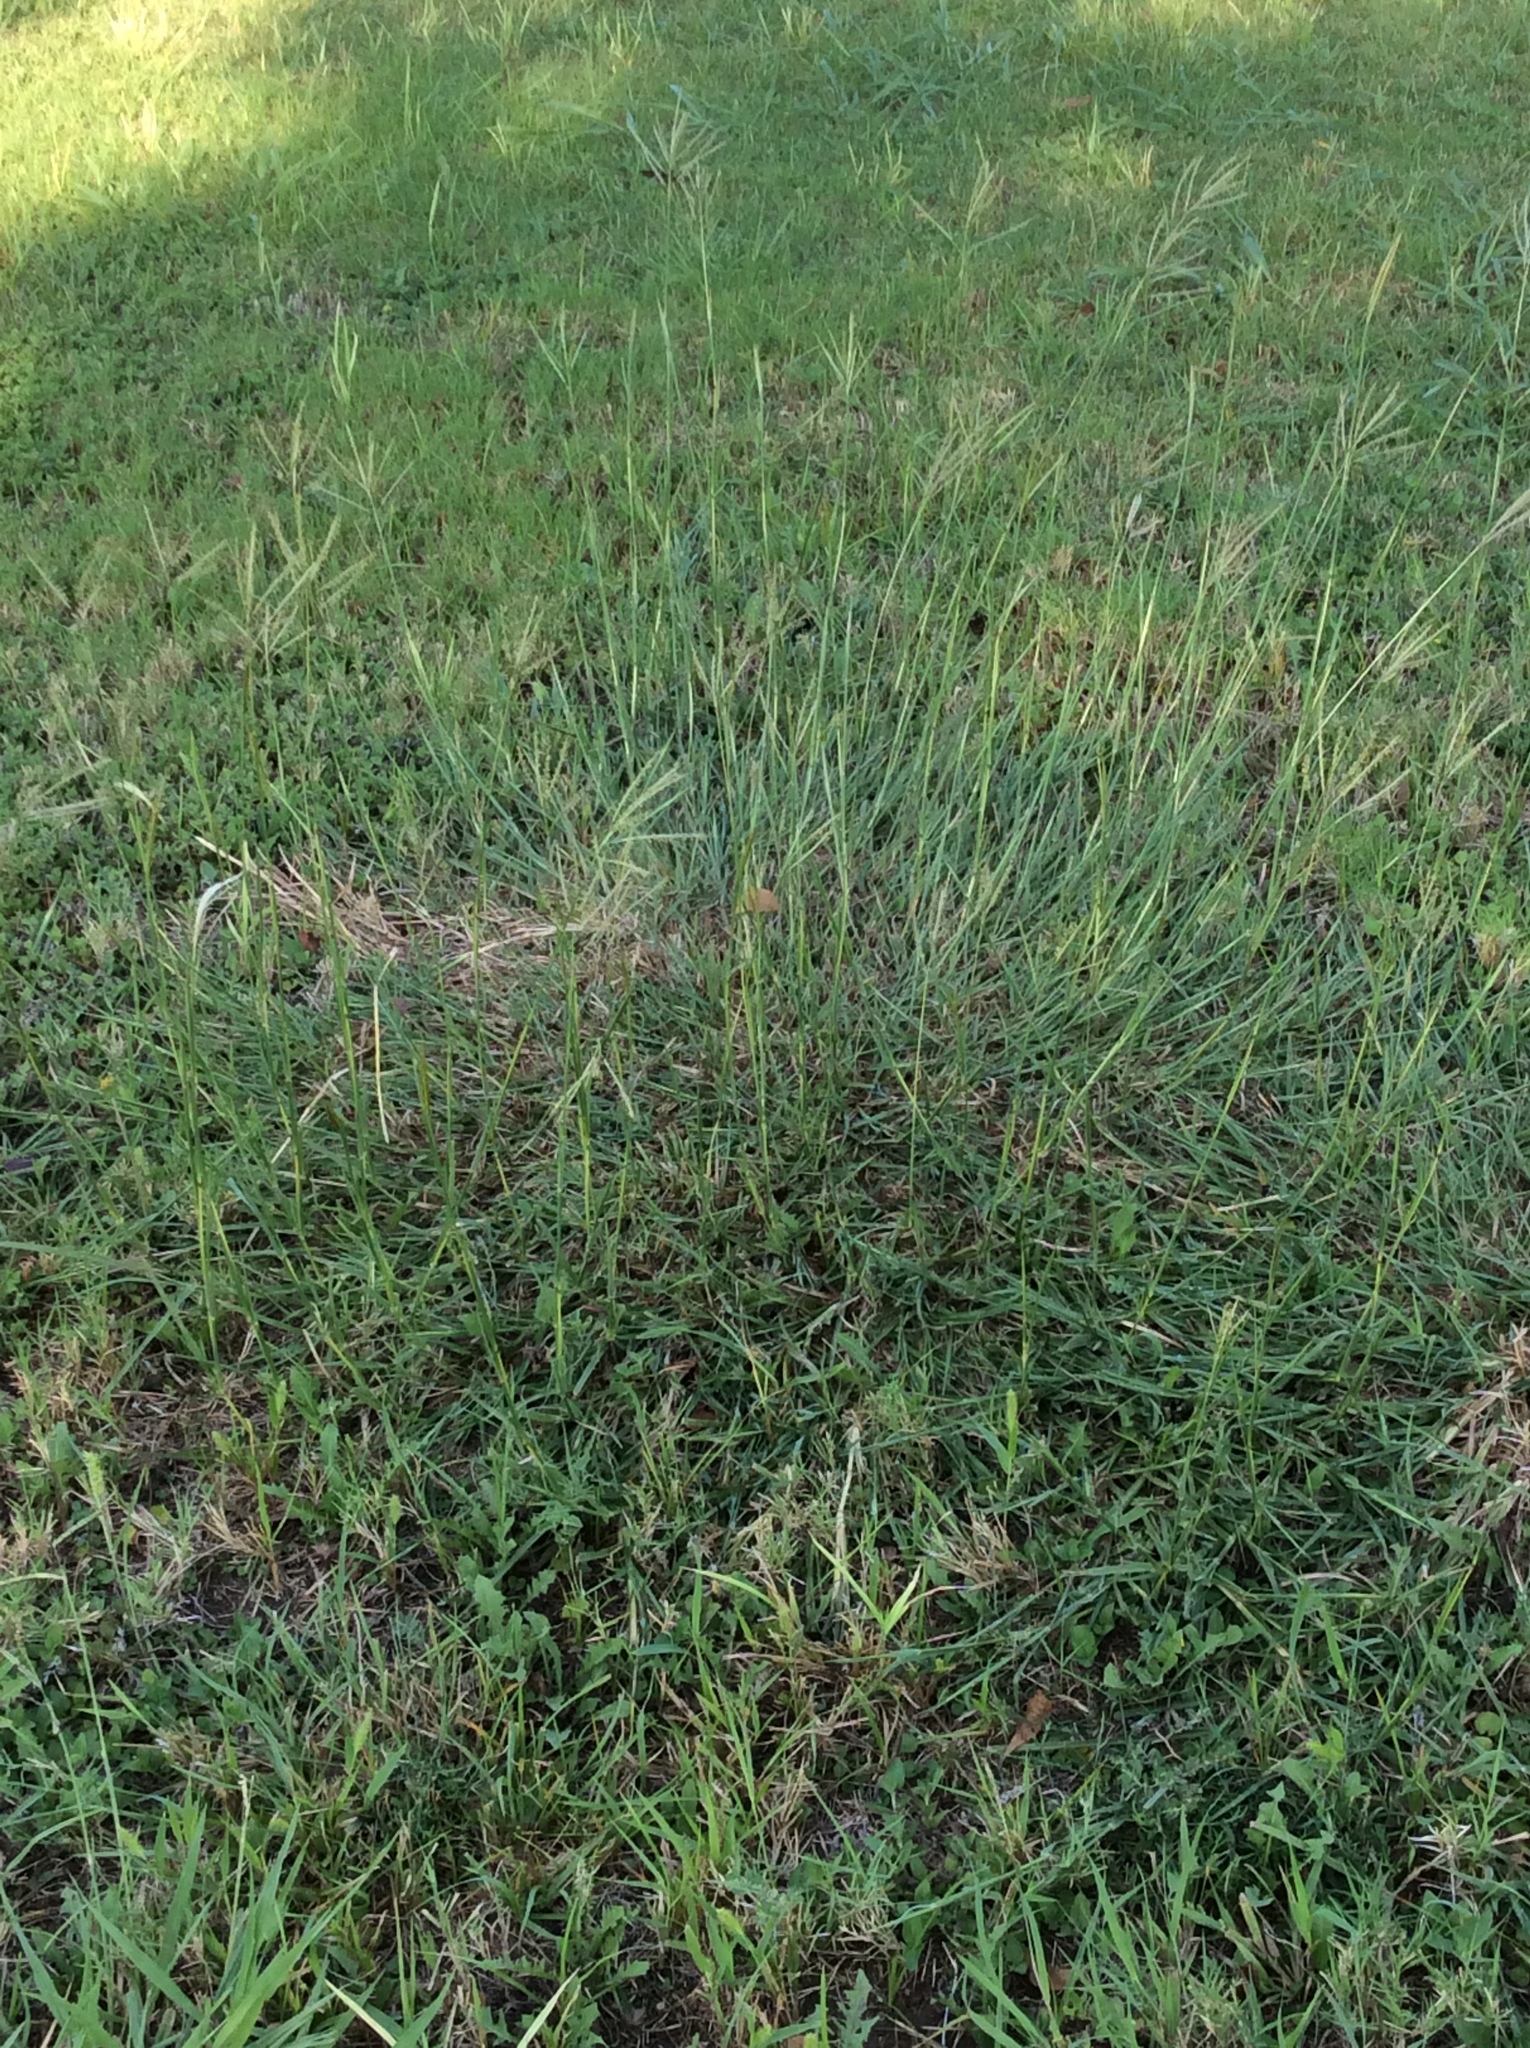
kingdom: Plantae
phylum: Tracheophyta
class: Liliopsida
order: Poales
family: Poaceae
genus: Bothriochloa
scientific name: Bothriochloa ischaemum
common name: Yellow bluestem
